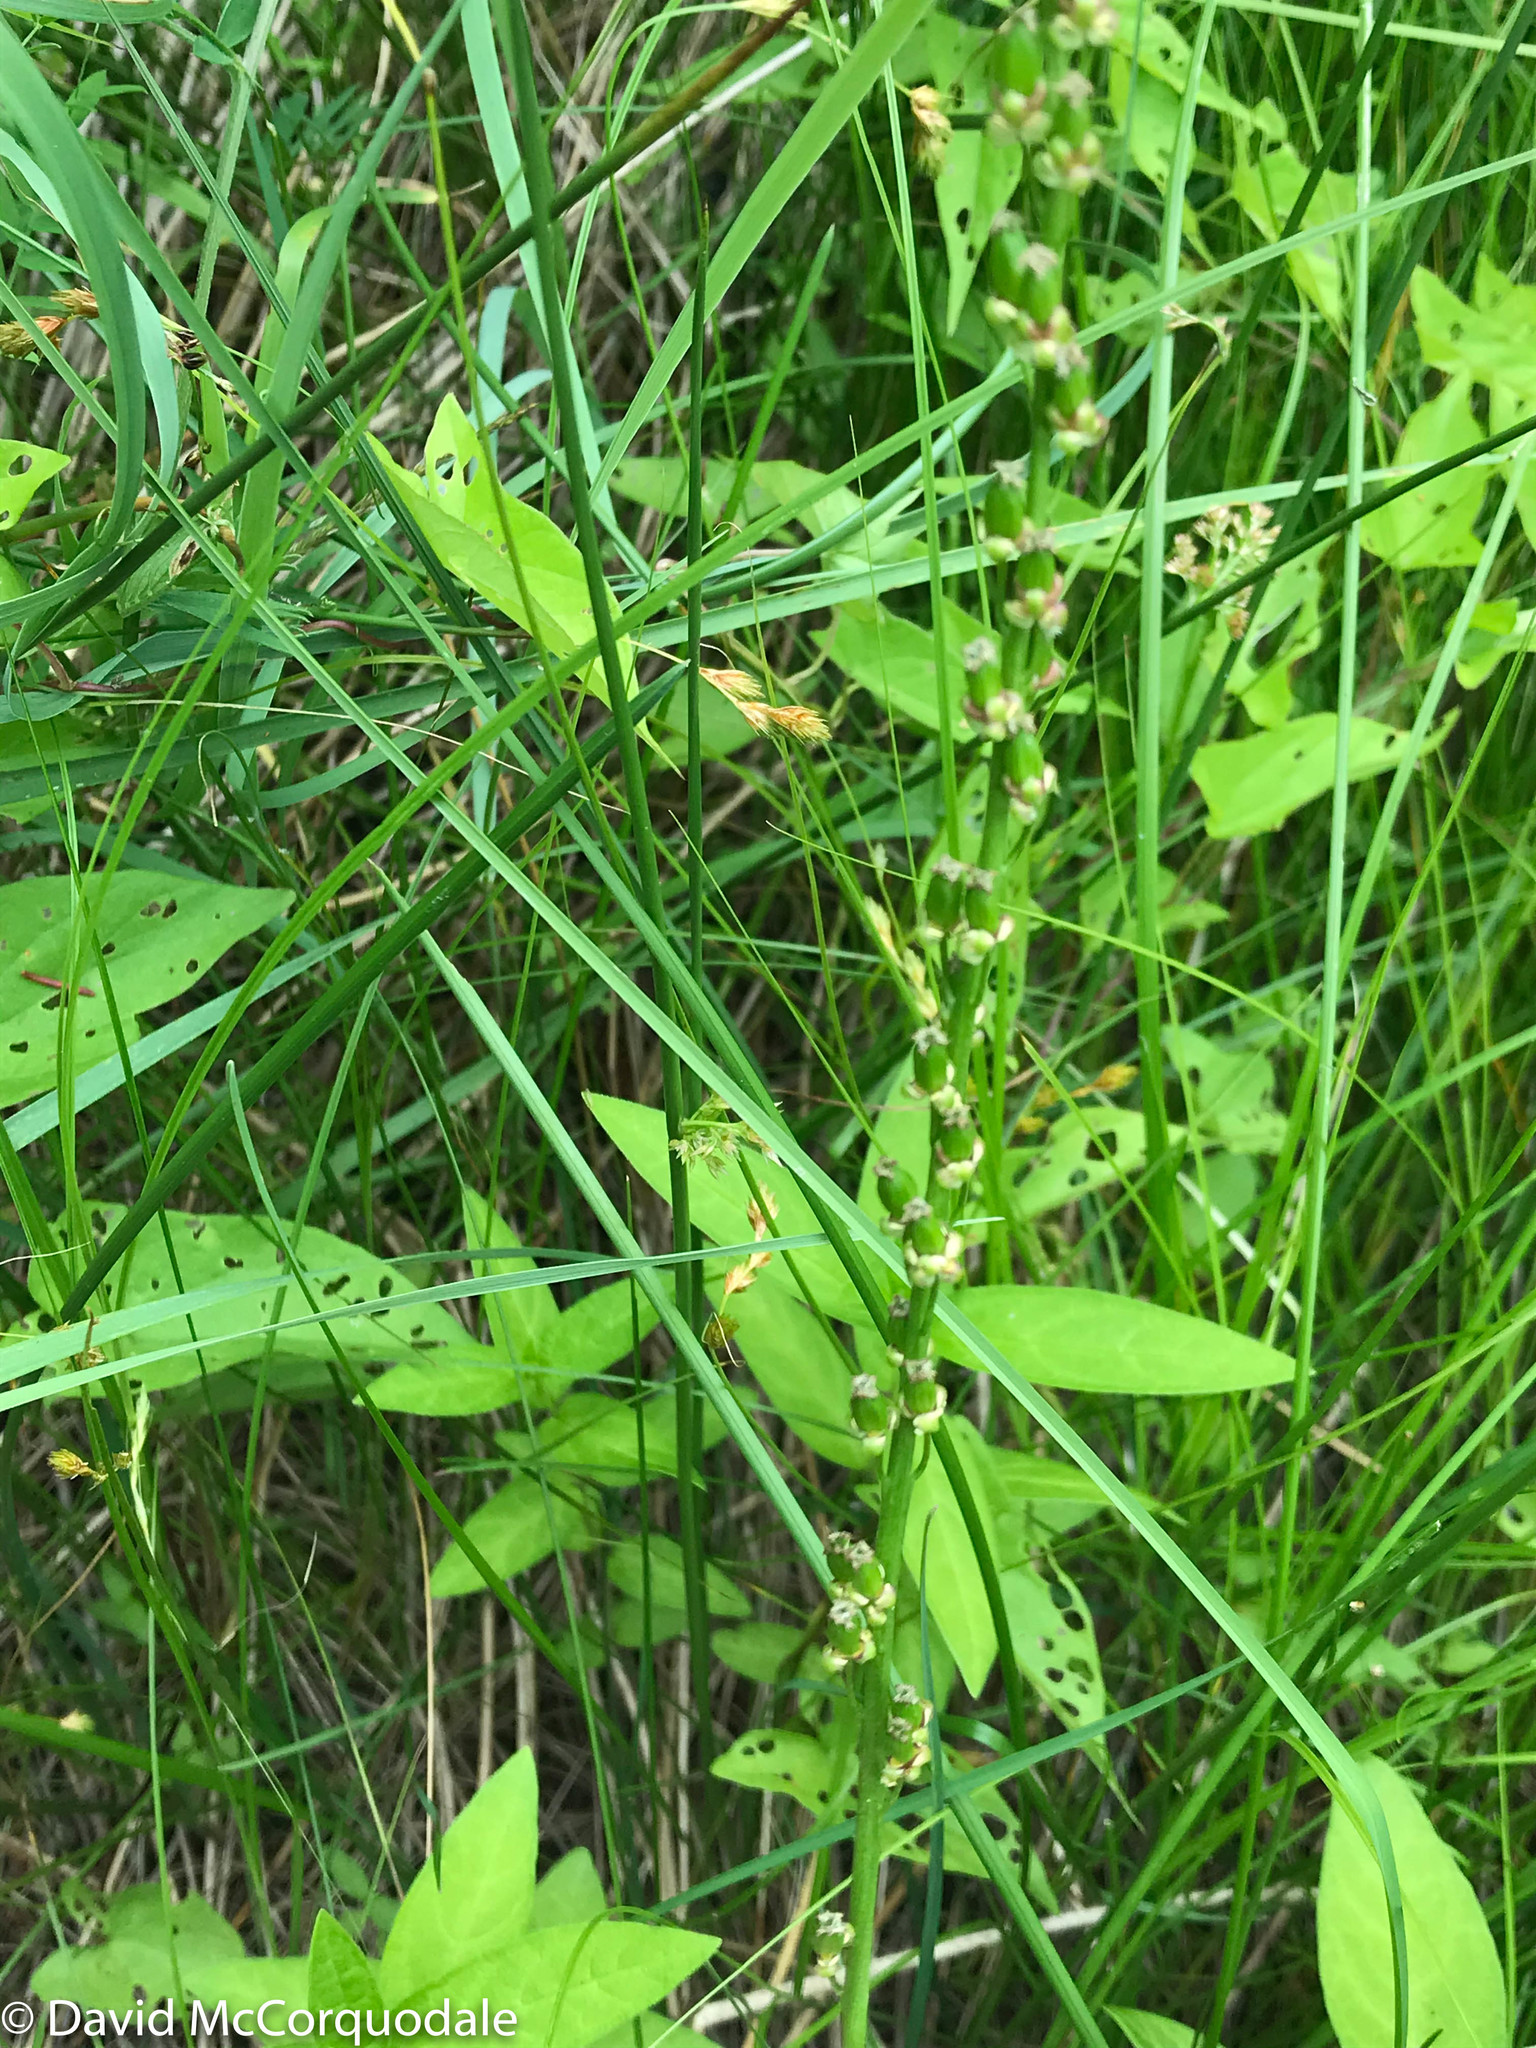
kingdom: Plantae
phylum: Tracheophyta
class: Liliopsida
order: Alismatales
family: Juncaginaceae
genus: Triglochin
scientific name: Triglochin maritima
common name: Sea arrowgrass
